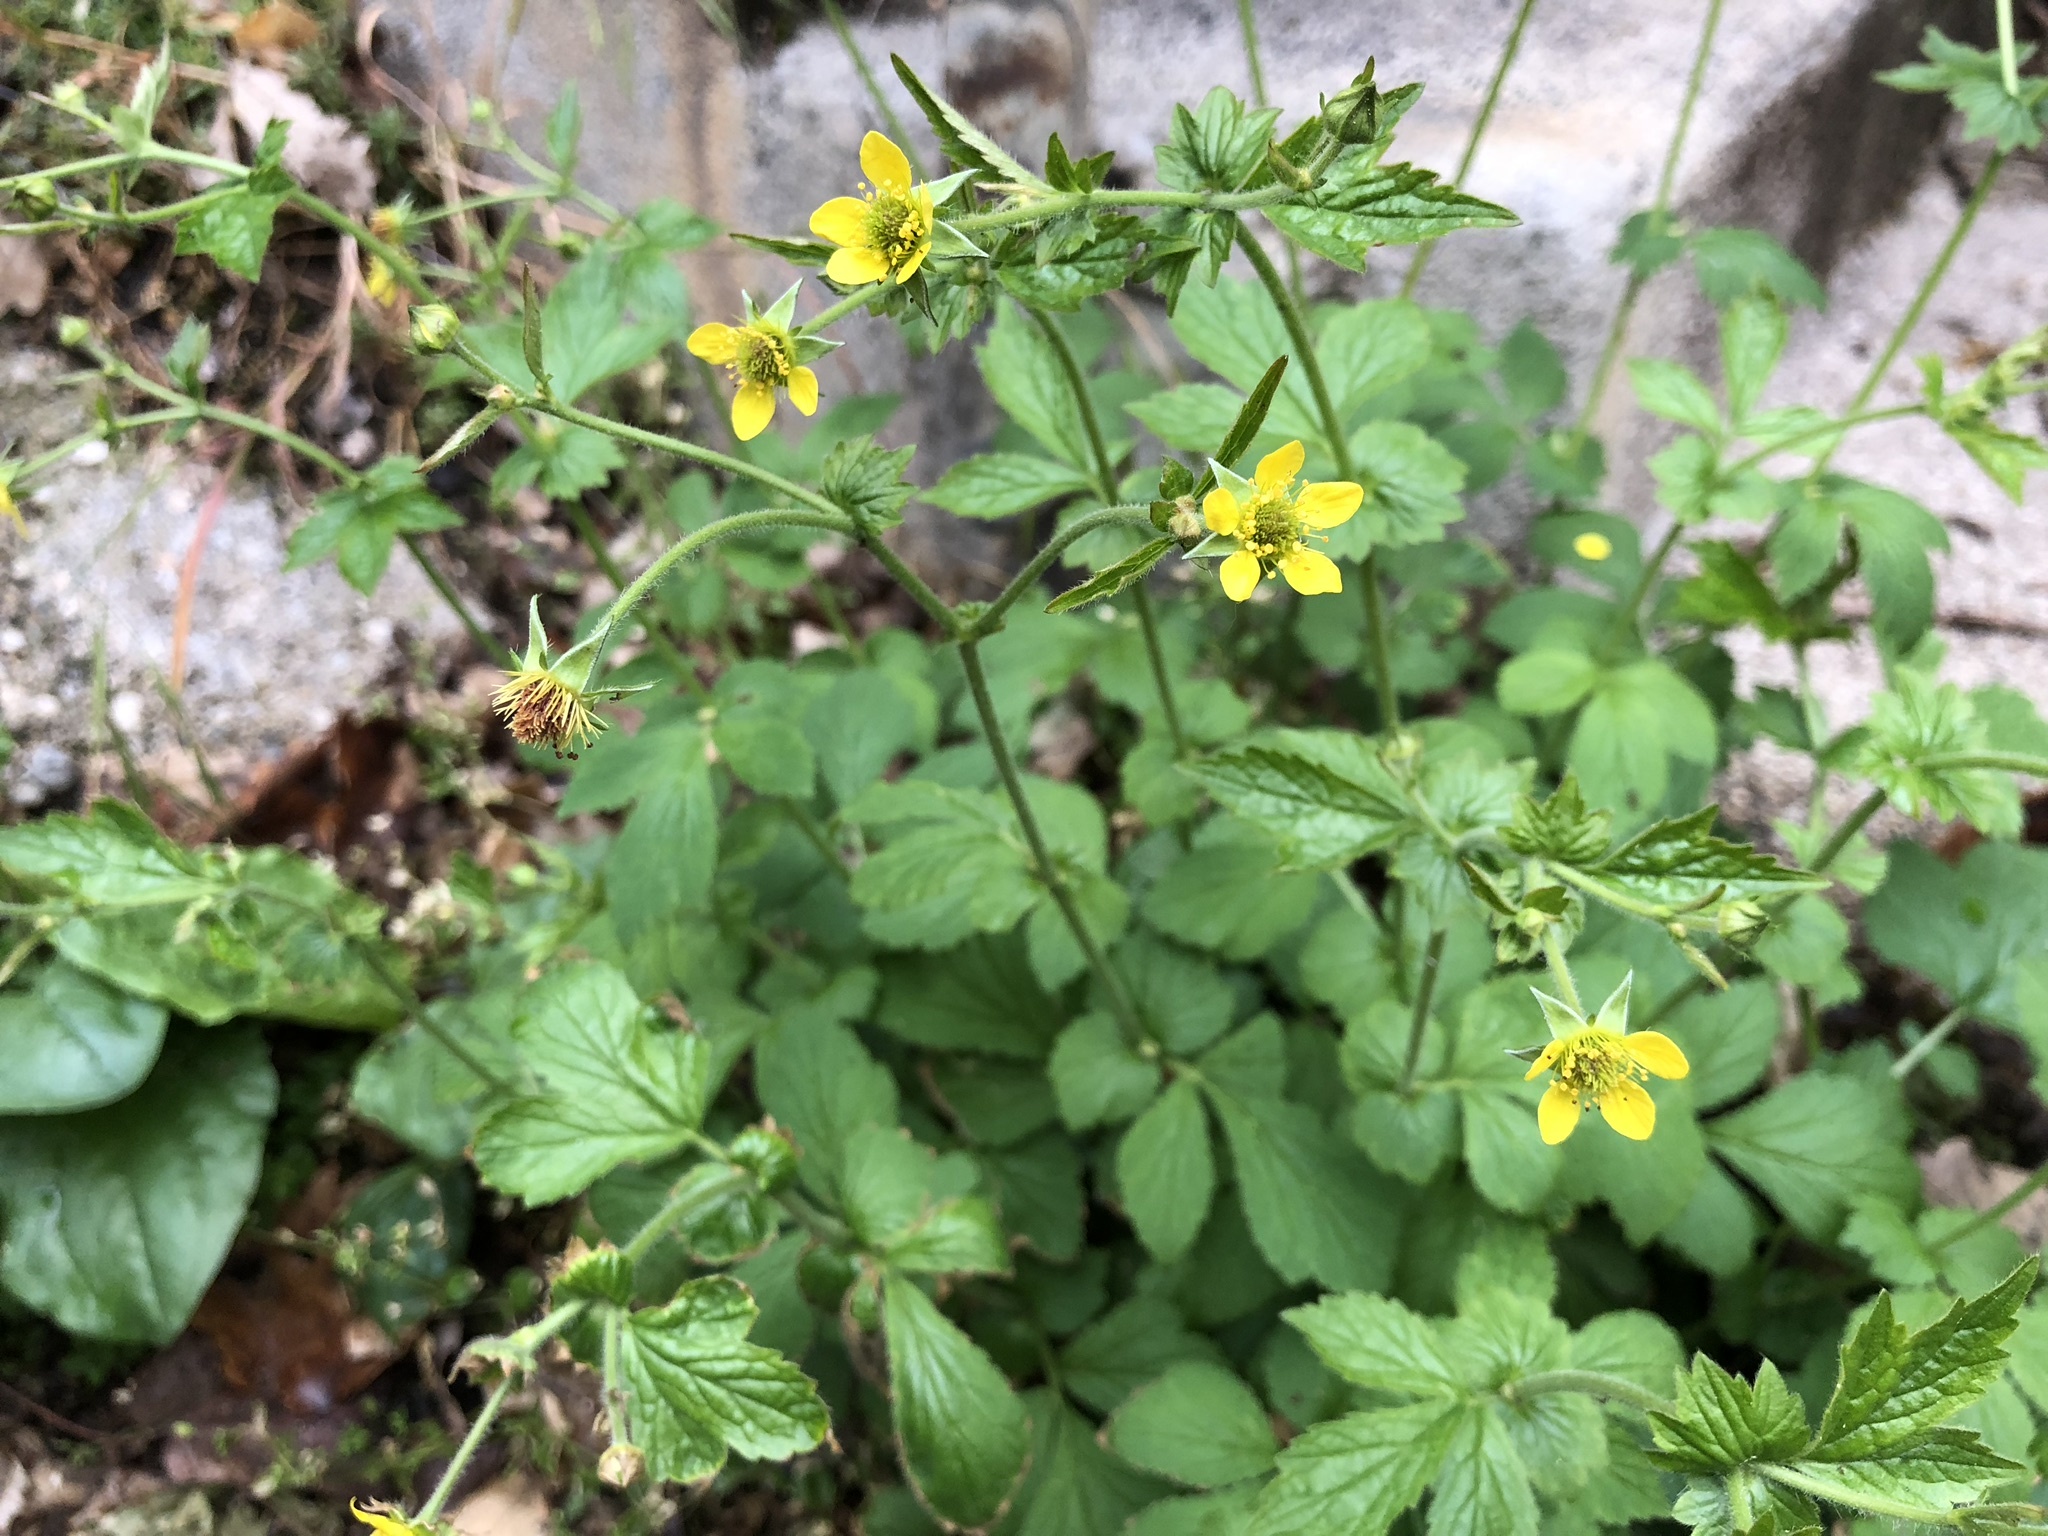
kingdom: Plantae
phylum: Tracheophyta
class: Magnoliopsida
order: Rosales
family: Rosaceae
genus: Geum
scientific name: Geum urbanum
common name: Wood avens
